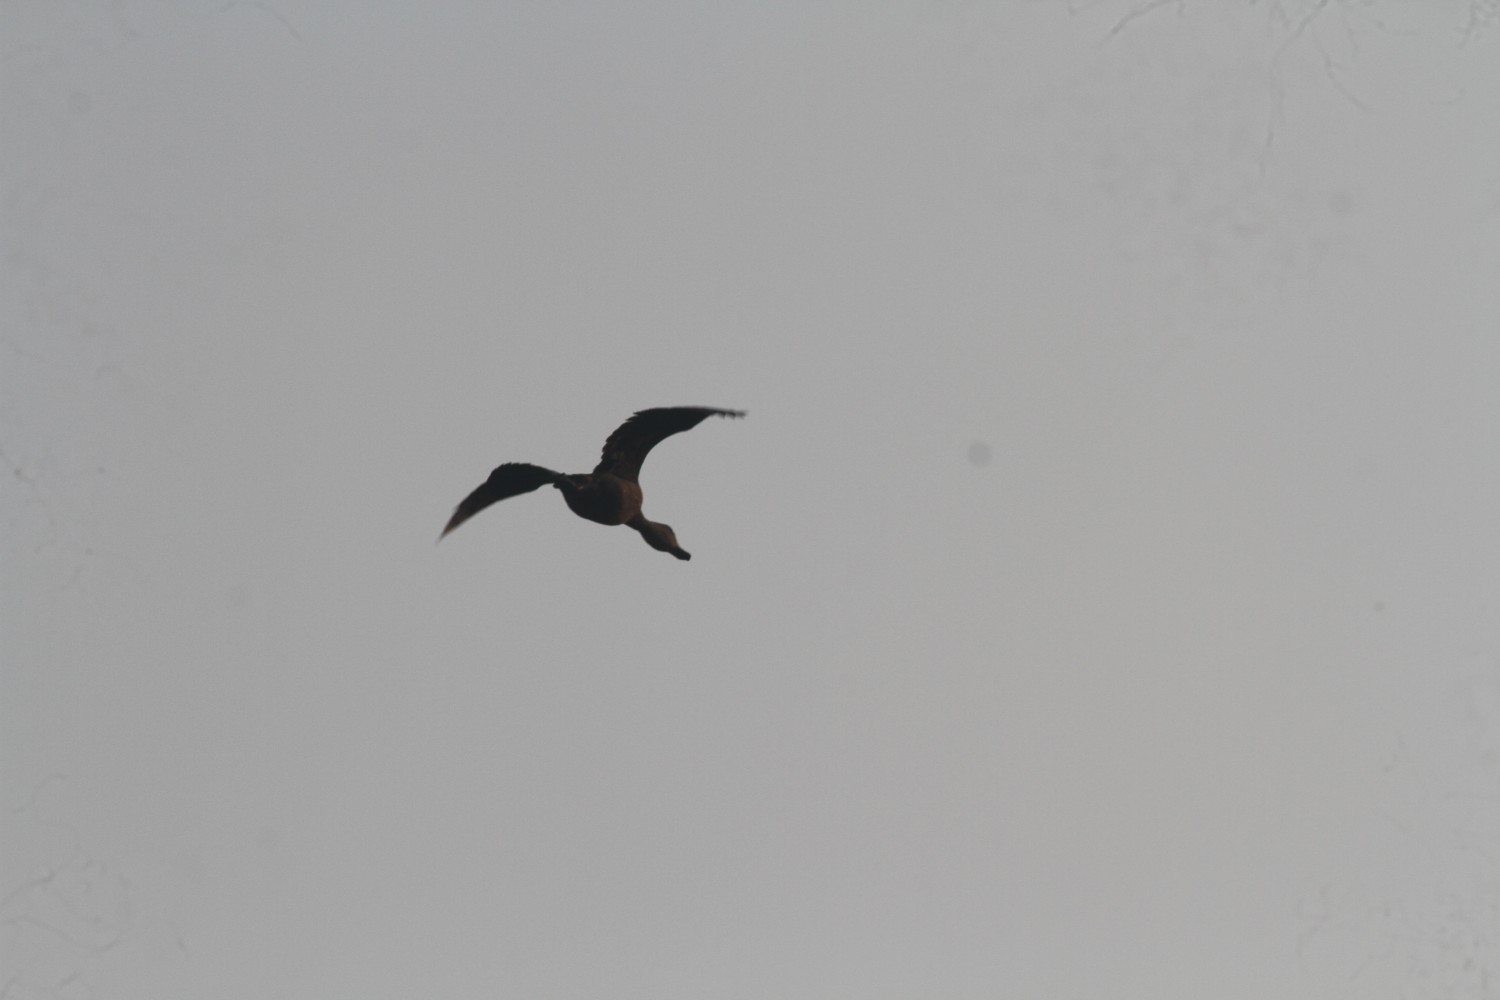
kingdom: Animalia
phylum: Chordata
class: Aves
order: Anseriformes
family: Anatidae
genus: Dendrocygna
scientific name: Dendrocygna javanica
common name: Lesser whistling-duck
